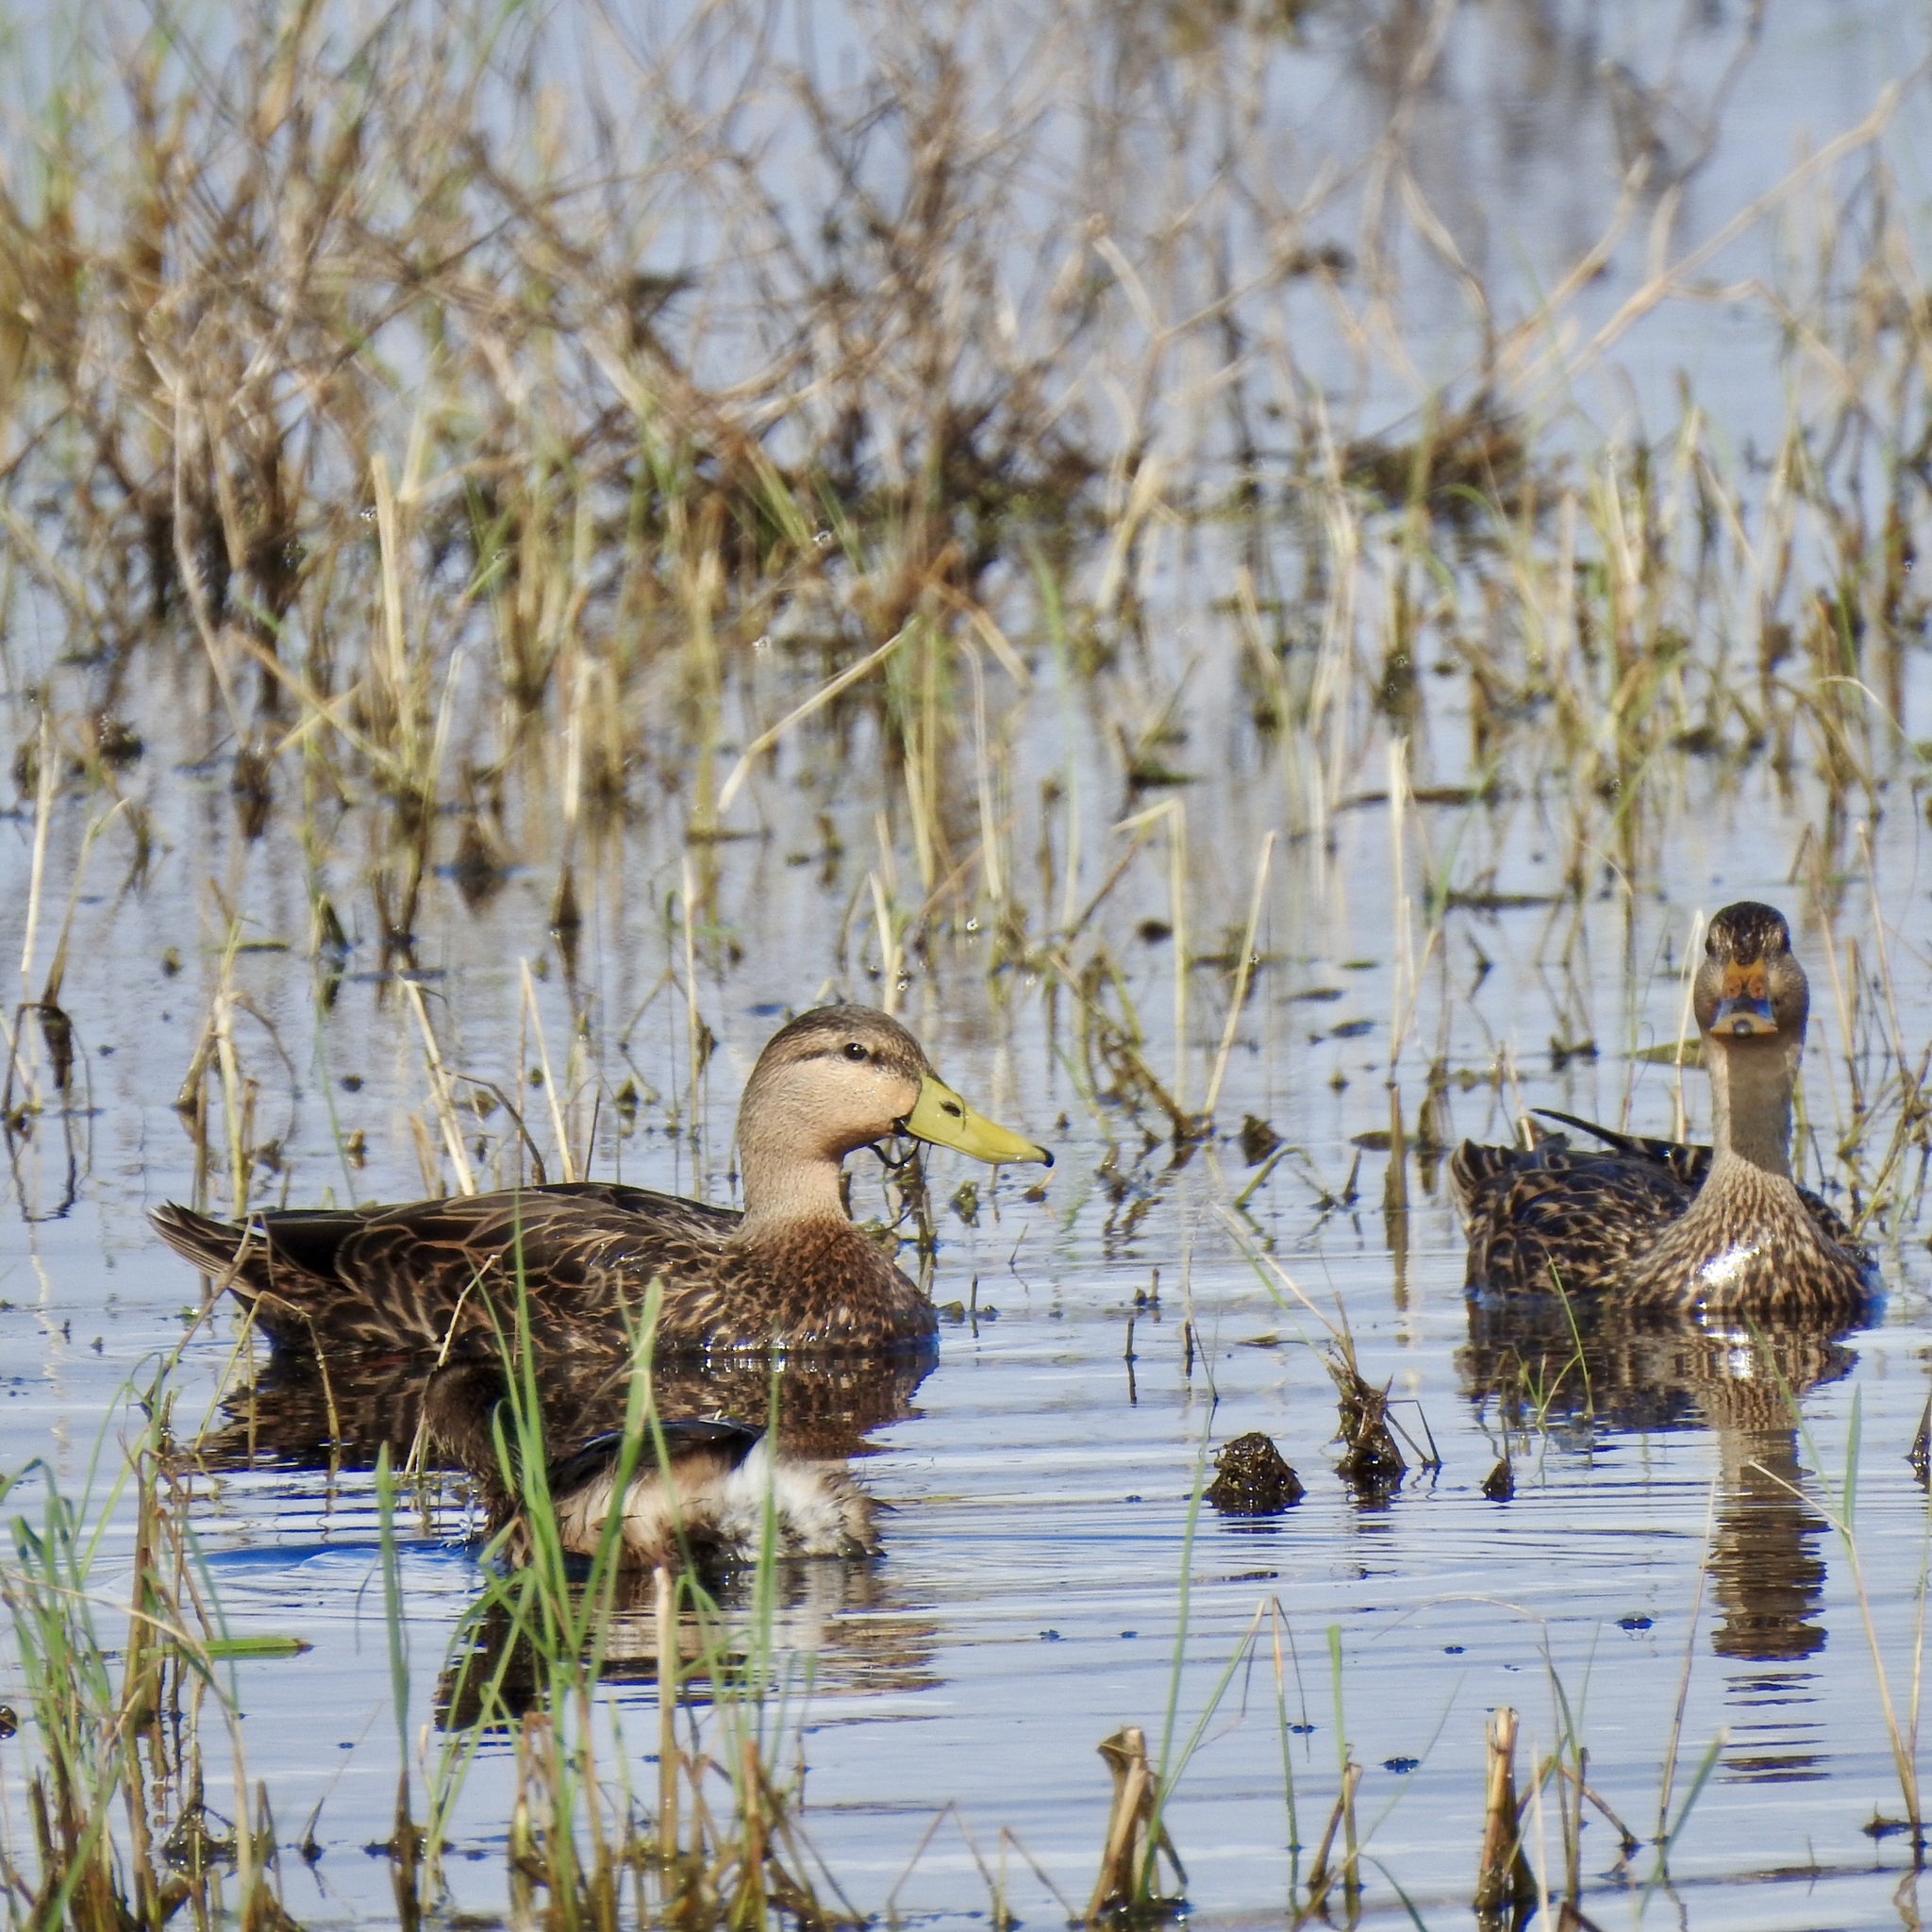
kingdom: Animalia
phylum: Chordata
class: Aves
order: Anseriformes
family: Anatidae
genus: Anas
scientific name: Anas fulvigula
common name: Mottled duck
